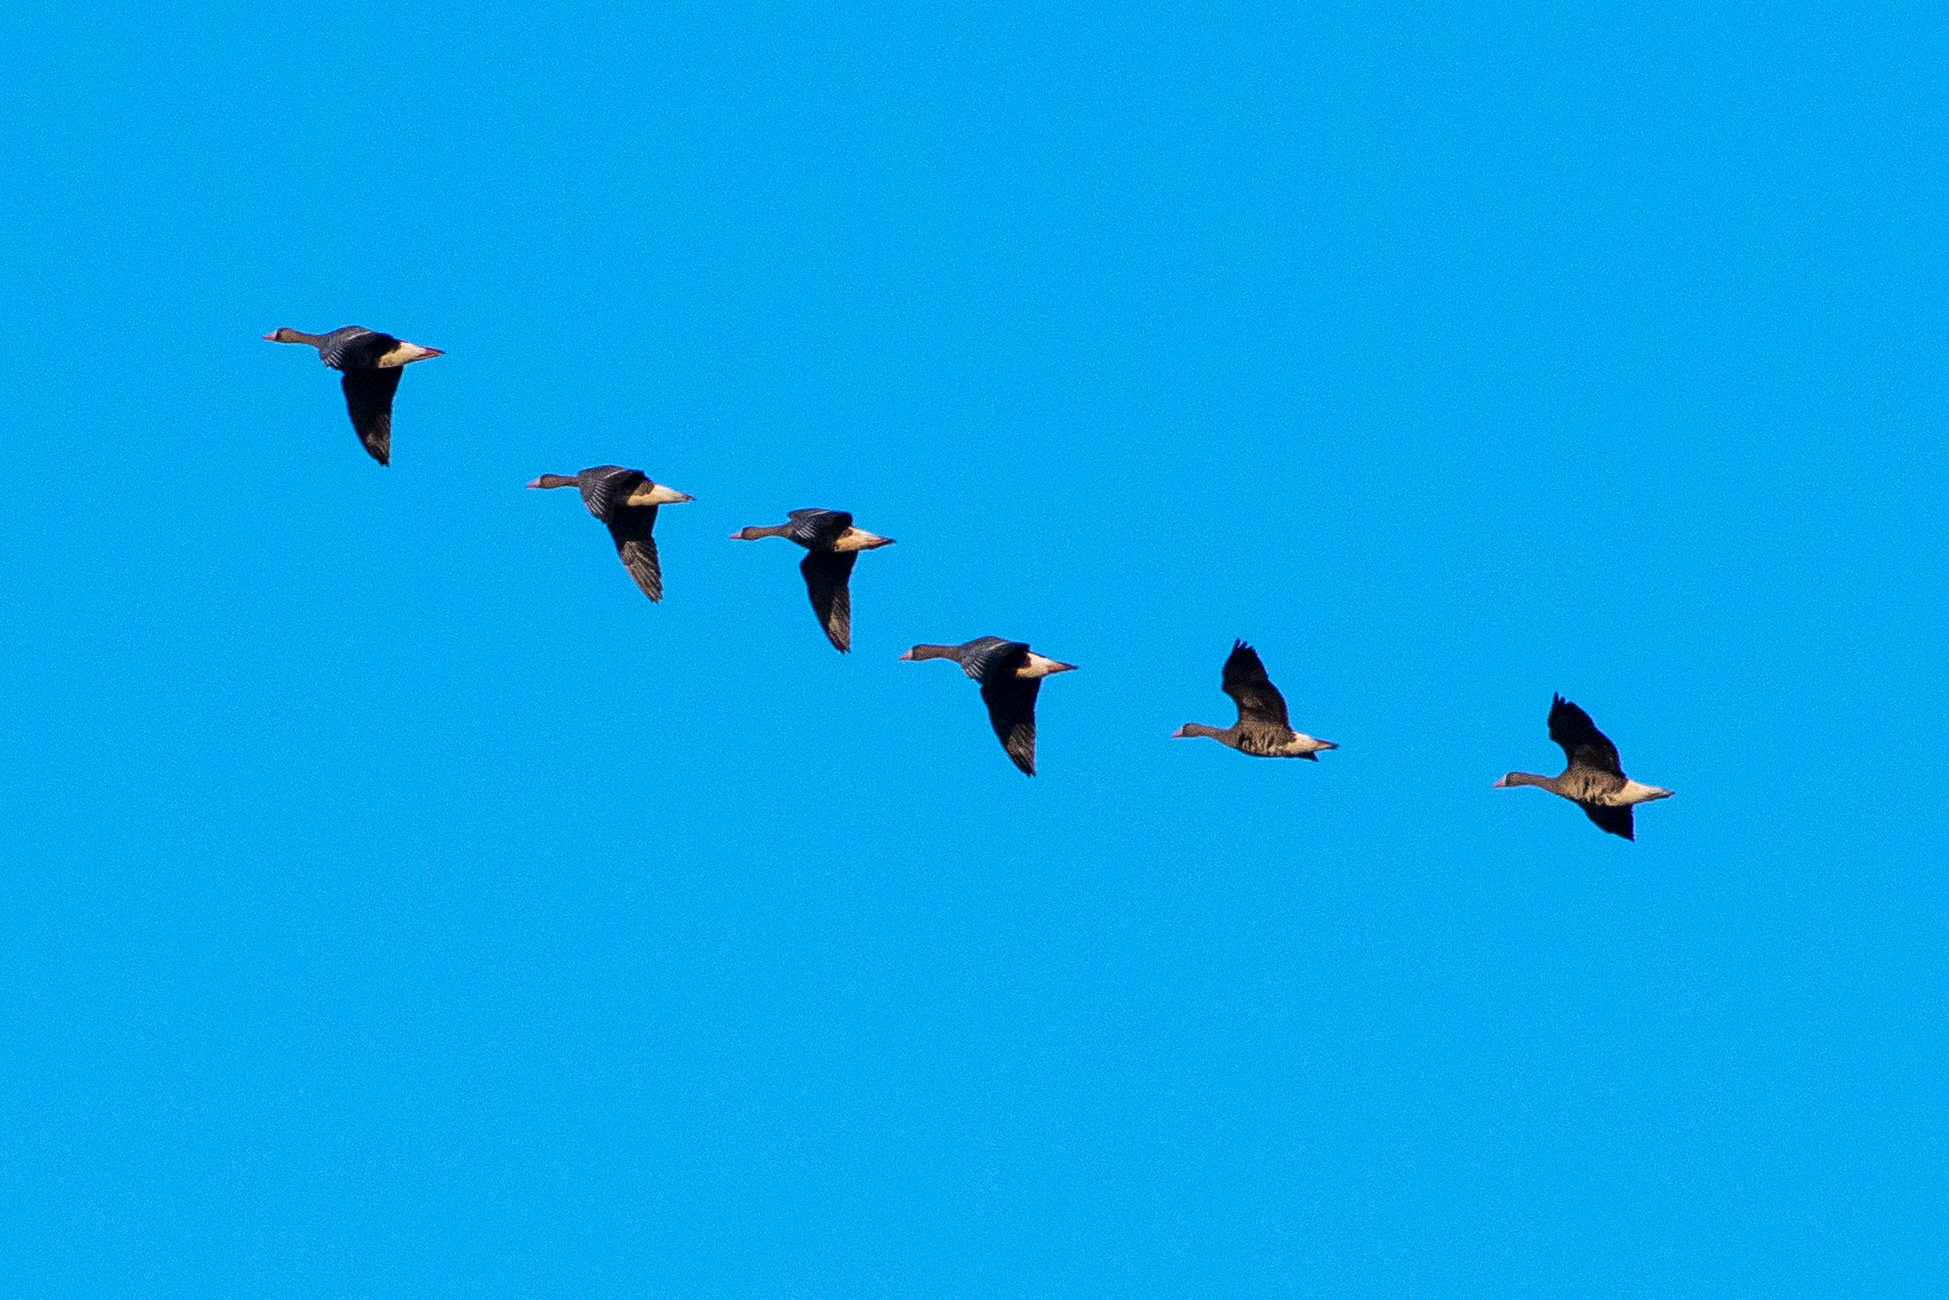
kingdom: Animalia
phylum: Chordata
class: Aves
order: Anseriformes
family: Anatidae
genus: Anser
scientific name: Anser albifrons
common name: Greater white-fronted goose
